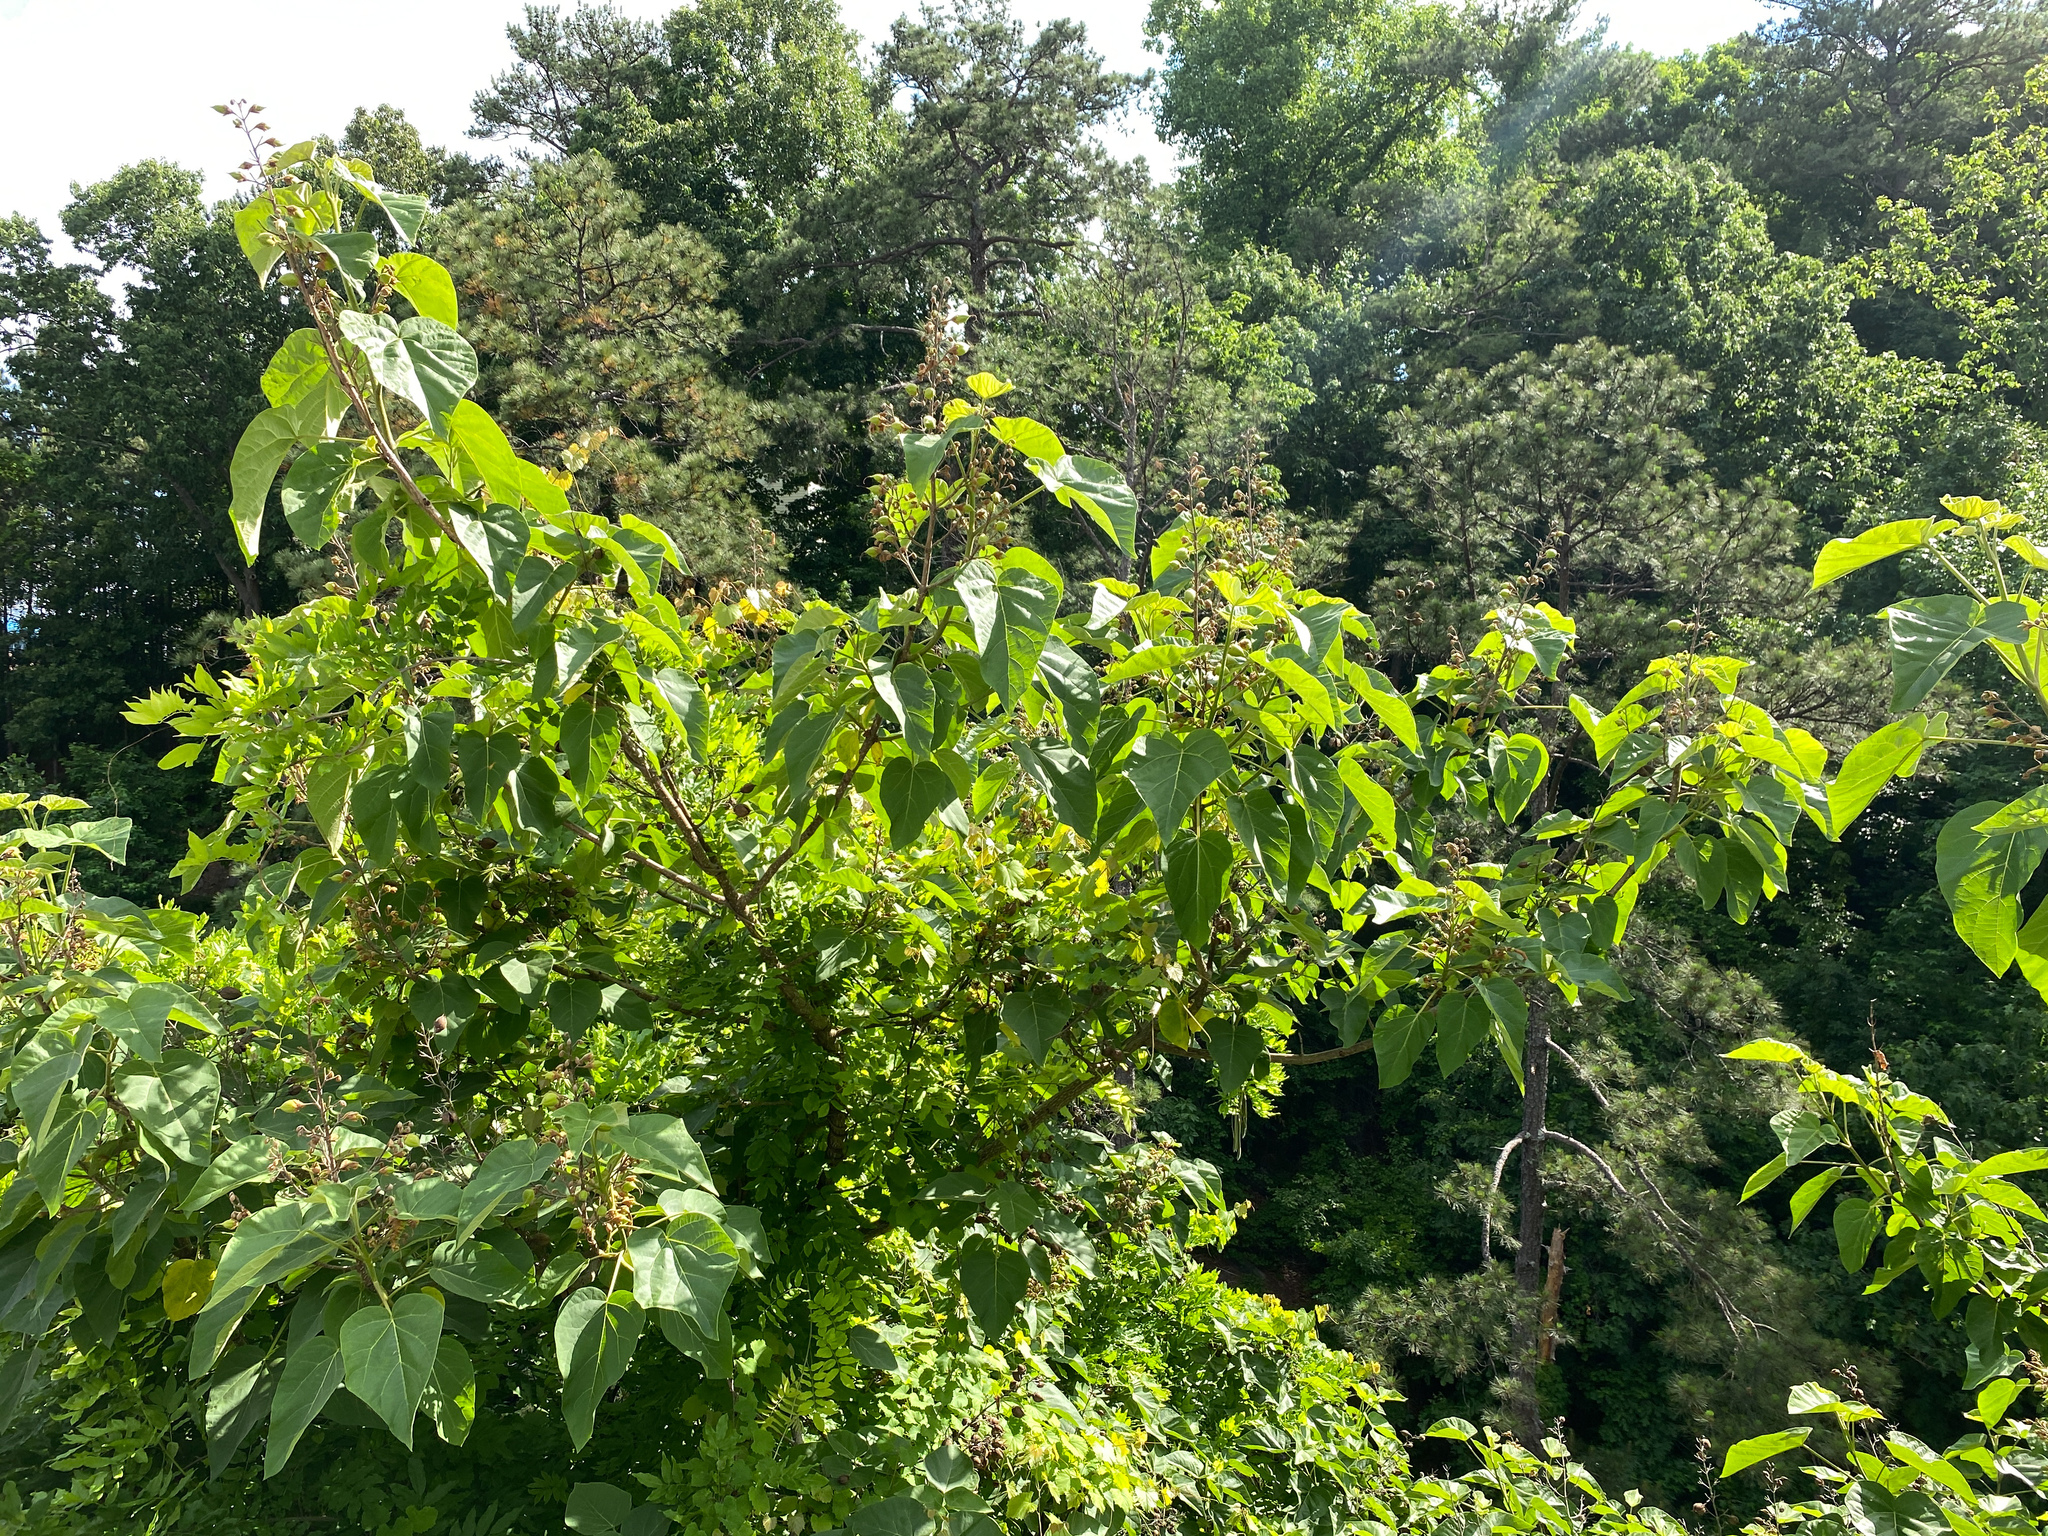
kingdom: Plantae
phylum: Tracheophyta
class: Magnoliopsida
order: Lamiales
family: Paulowniaceae
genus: Paulownia
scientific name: Paulownia tomentosa
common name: Foxglove-tree
